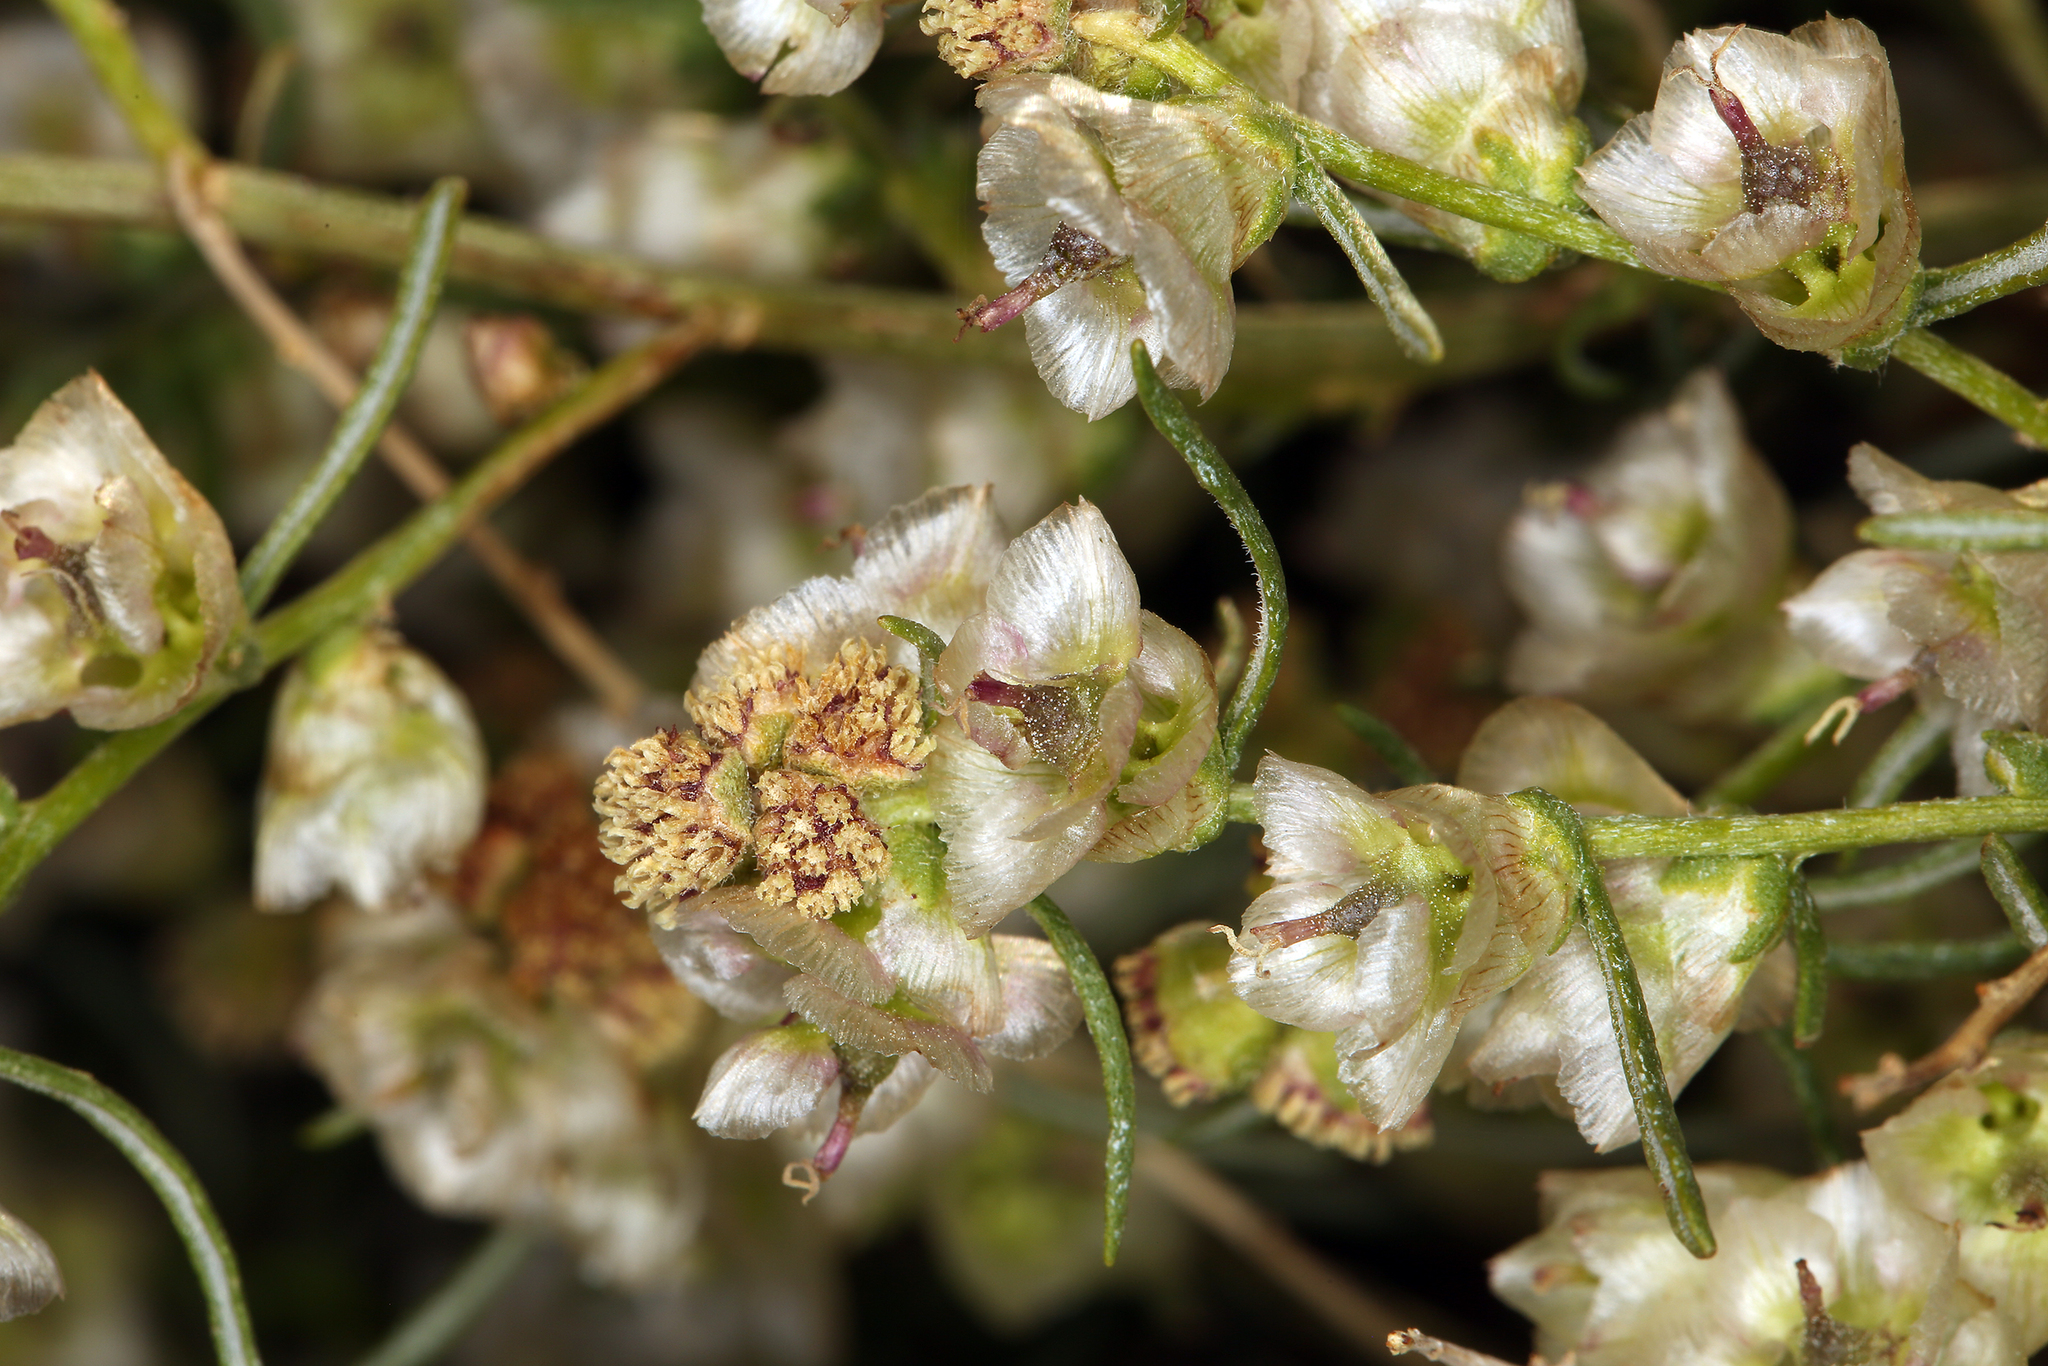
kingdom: Plantae
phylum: Tracheophyta
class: Magnoliopsida
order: Asterales
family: Asteraceae
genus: Ambrosia
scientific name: Ambrosia salsola
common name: Burrobrush
